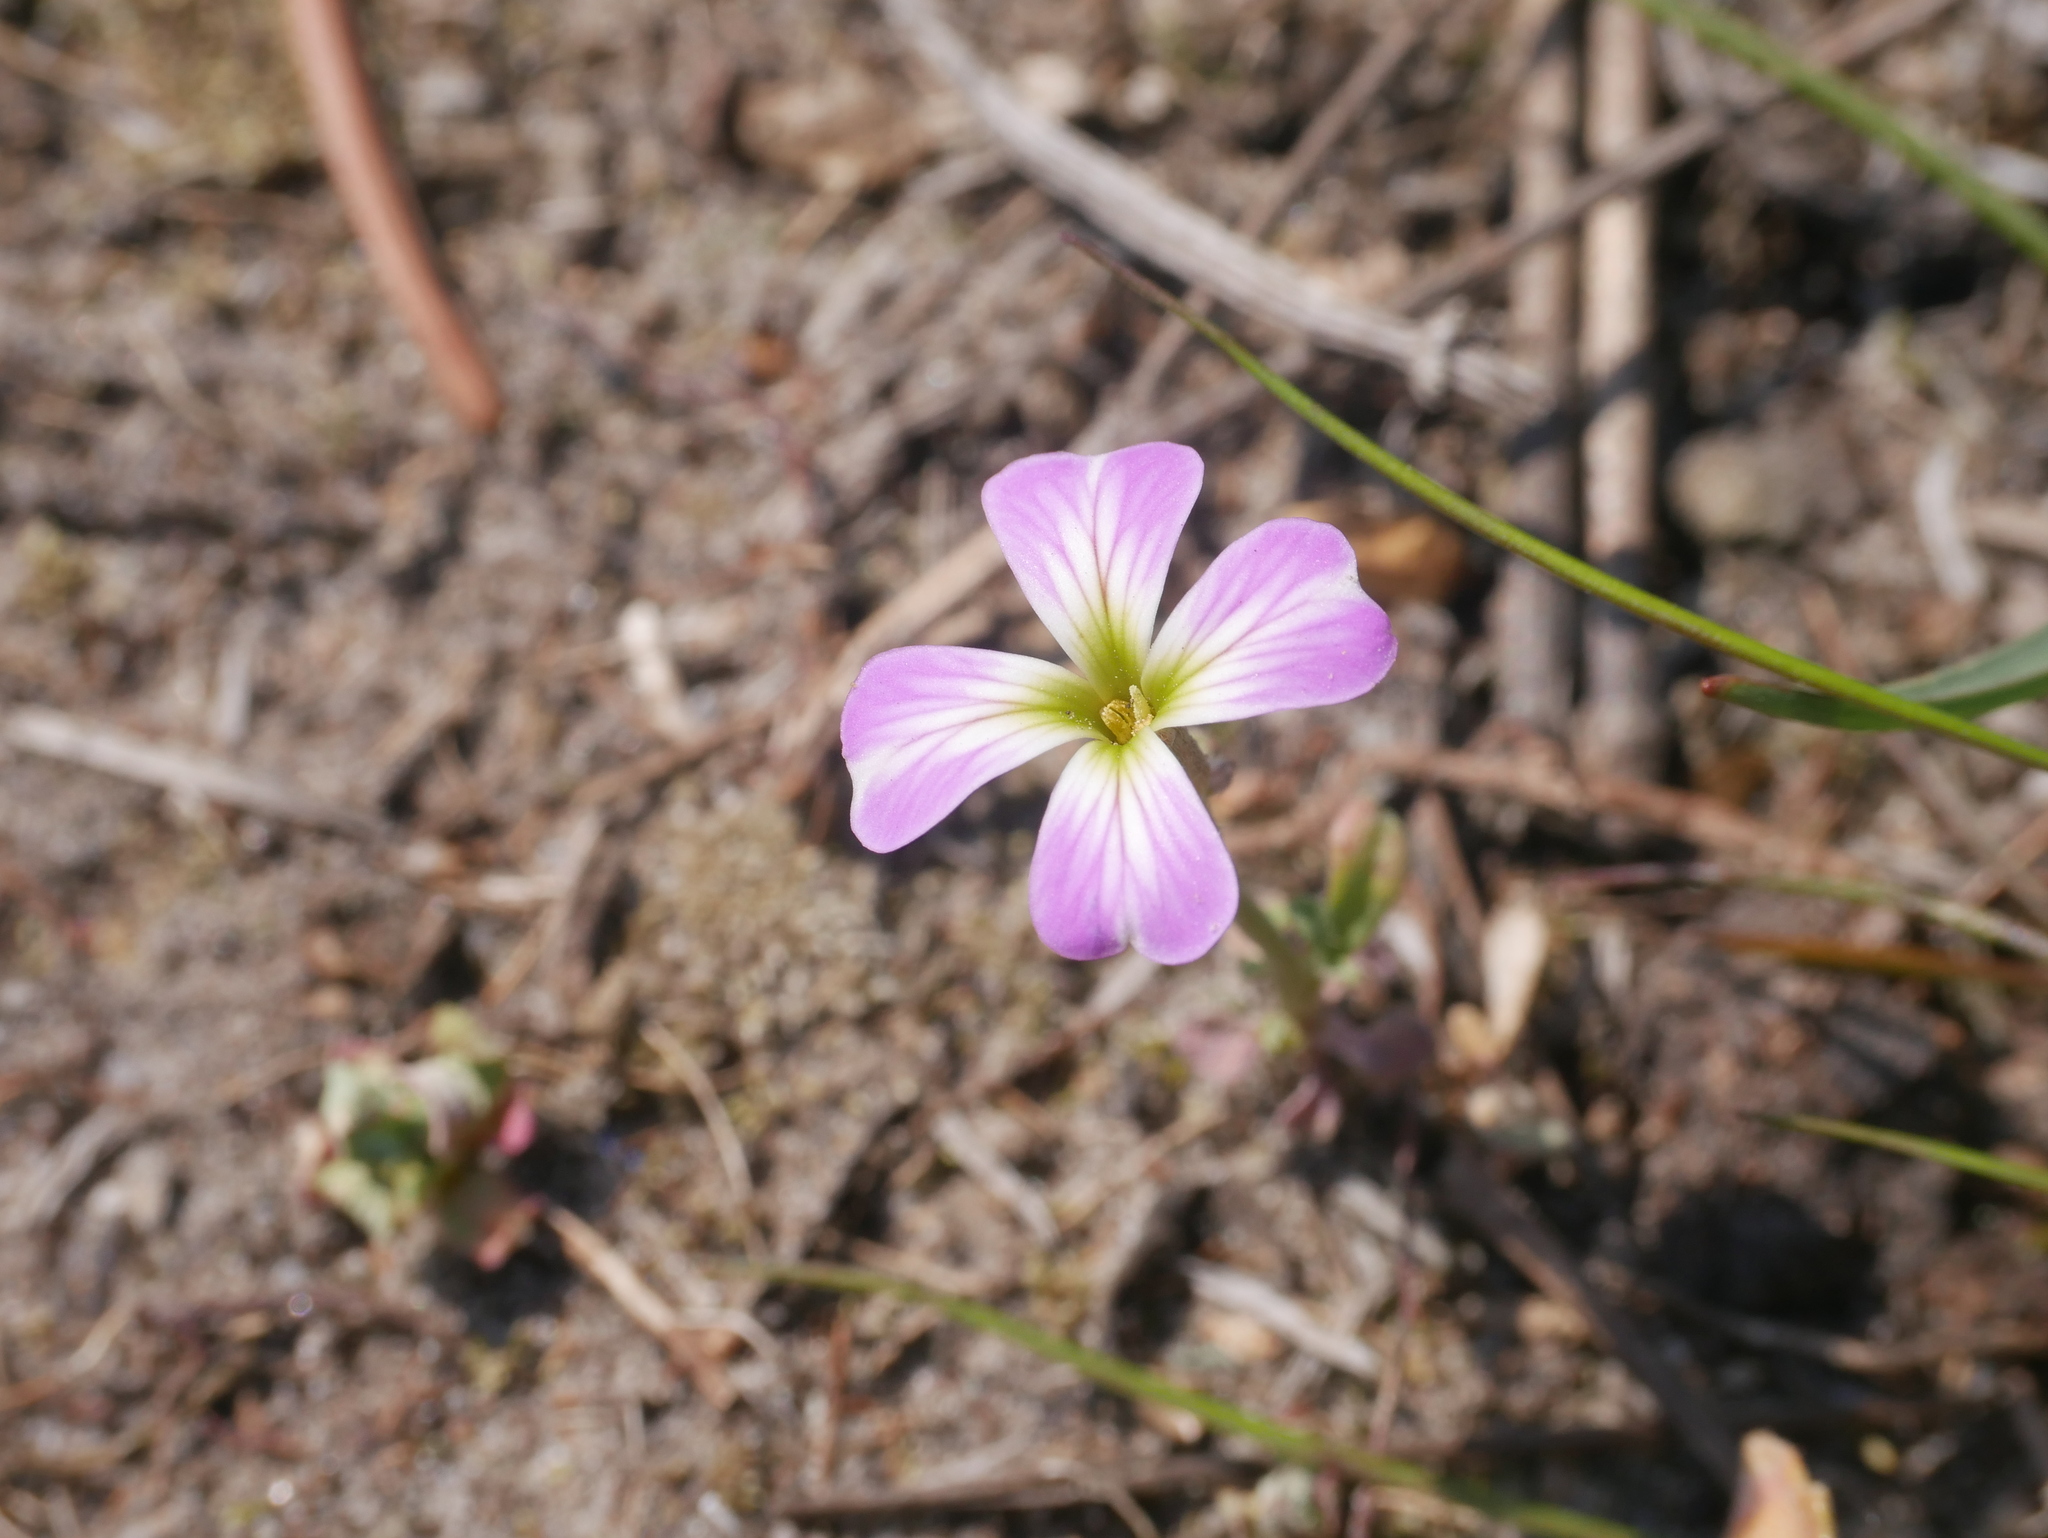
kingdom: Plantae
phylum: Tracheophyta
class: Magnoliopsida
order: Brassicales
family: Brassicaceae
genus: Malcolmia
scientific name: Malcolmia maritima
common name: Virginia stock
